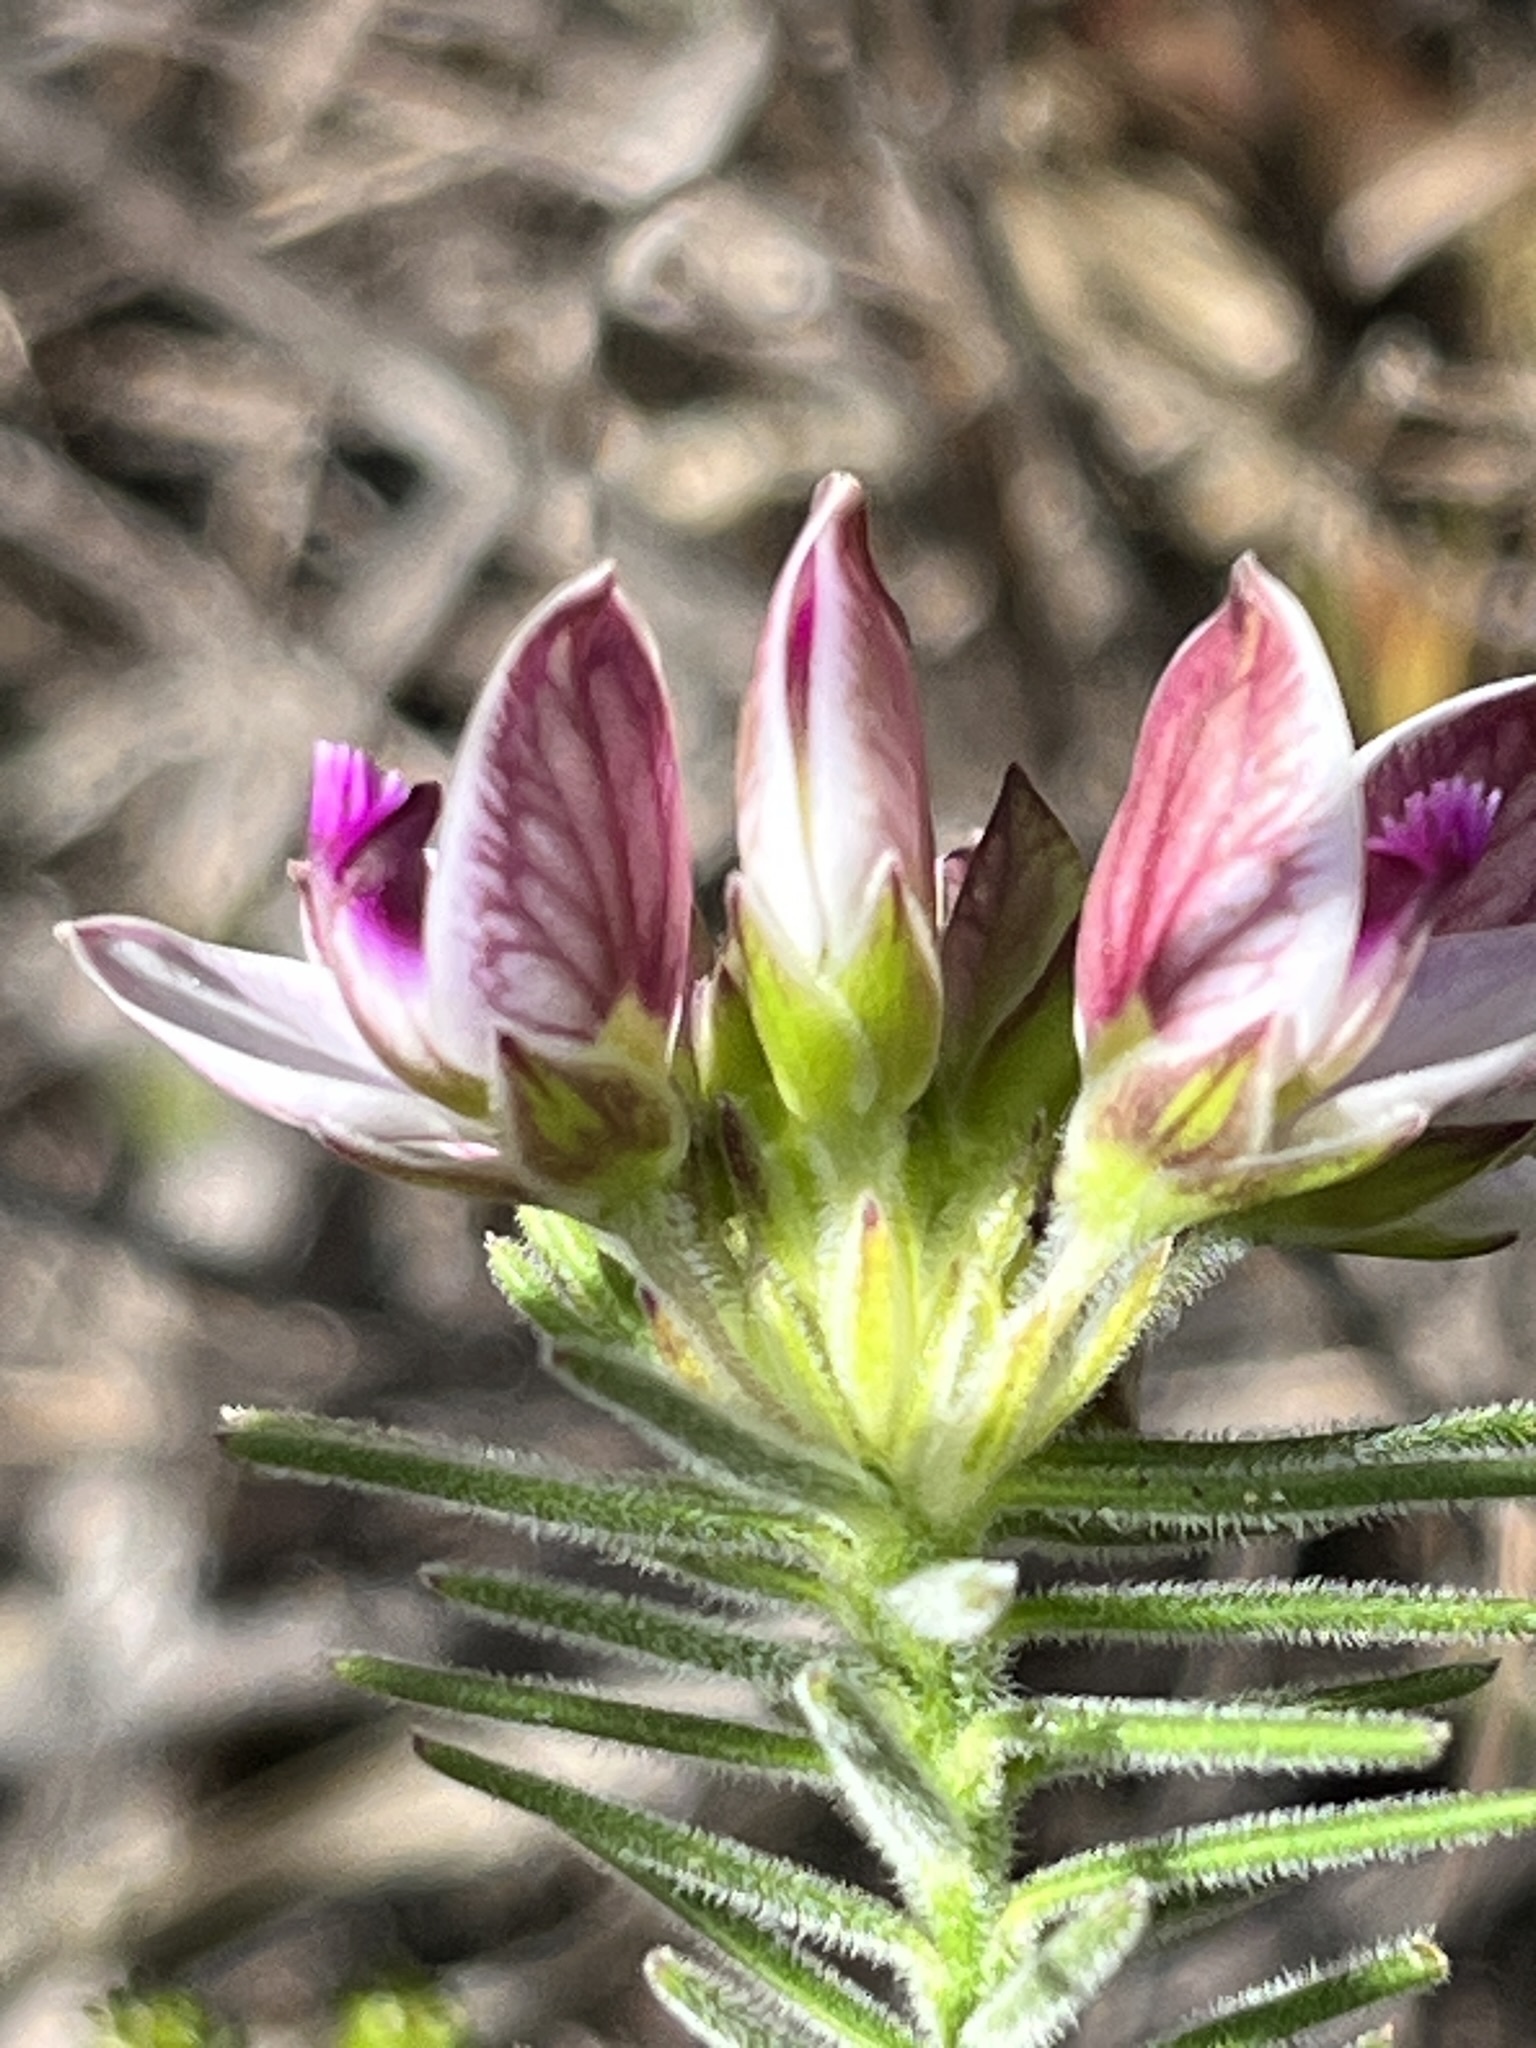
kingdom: Plantae
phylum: Tracheophyta
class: Magnoliopsida
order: Fabales
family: Polygalaceae
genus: Polygala
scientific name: Polygala dasyphylla
